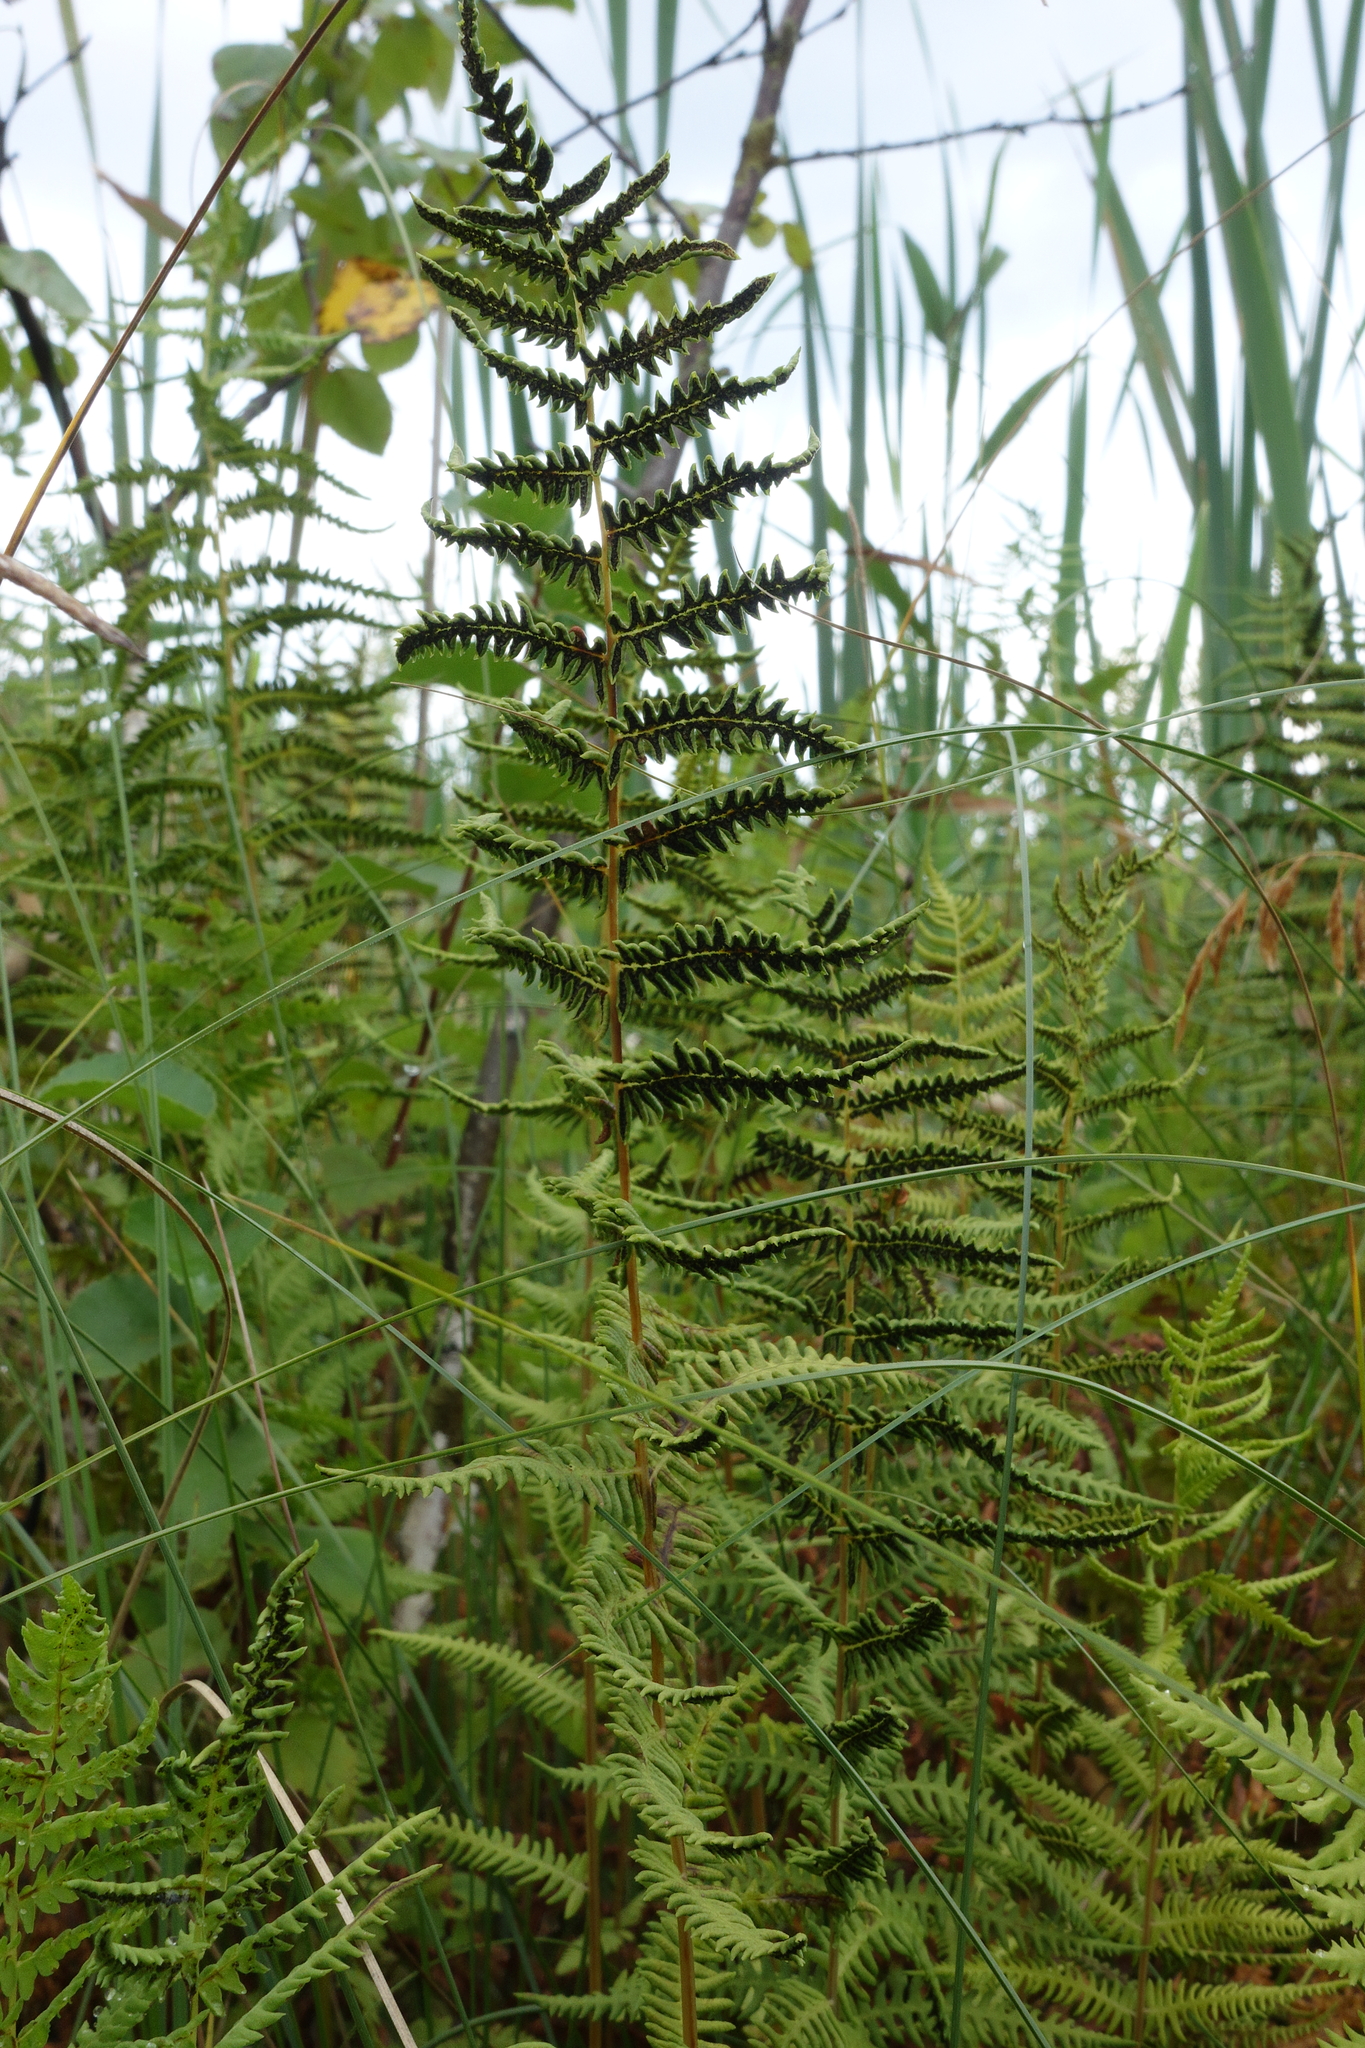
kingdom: Plantae
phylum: Tracheophyta
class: Polypodiopsida
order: Polypodiales
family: Thelypteridaceae
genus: Thelypteris
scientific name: Thelypteris palustris
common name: Marsh fern
